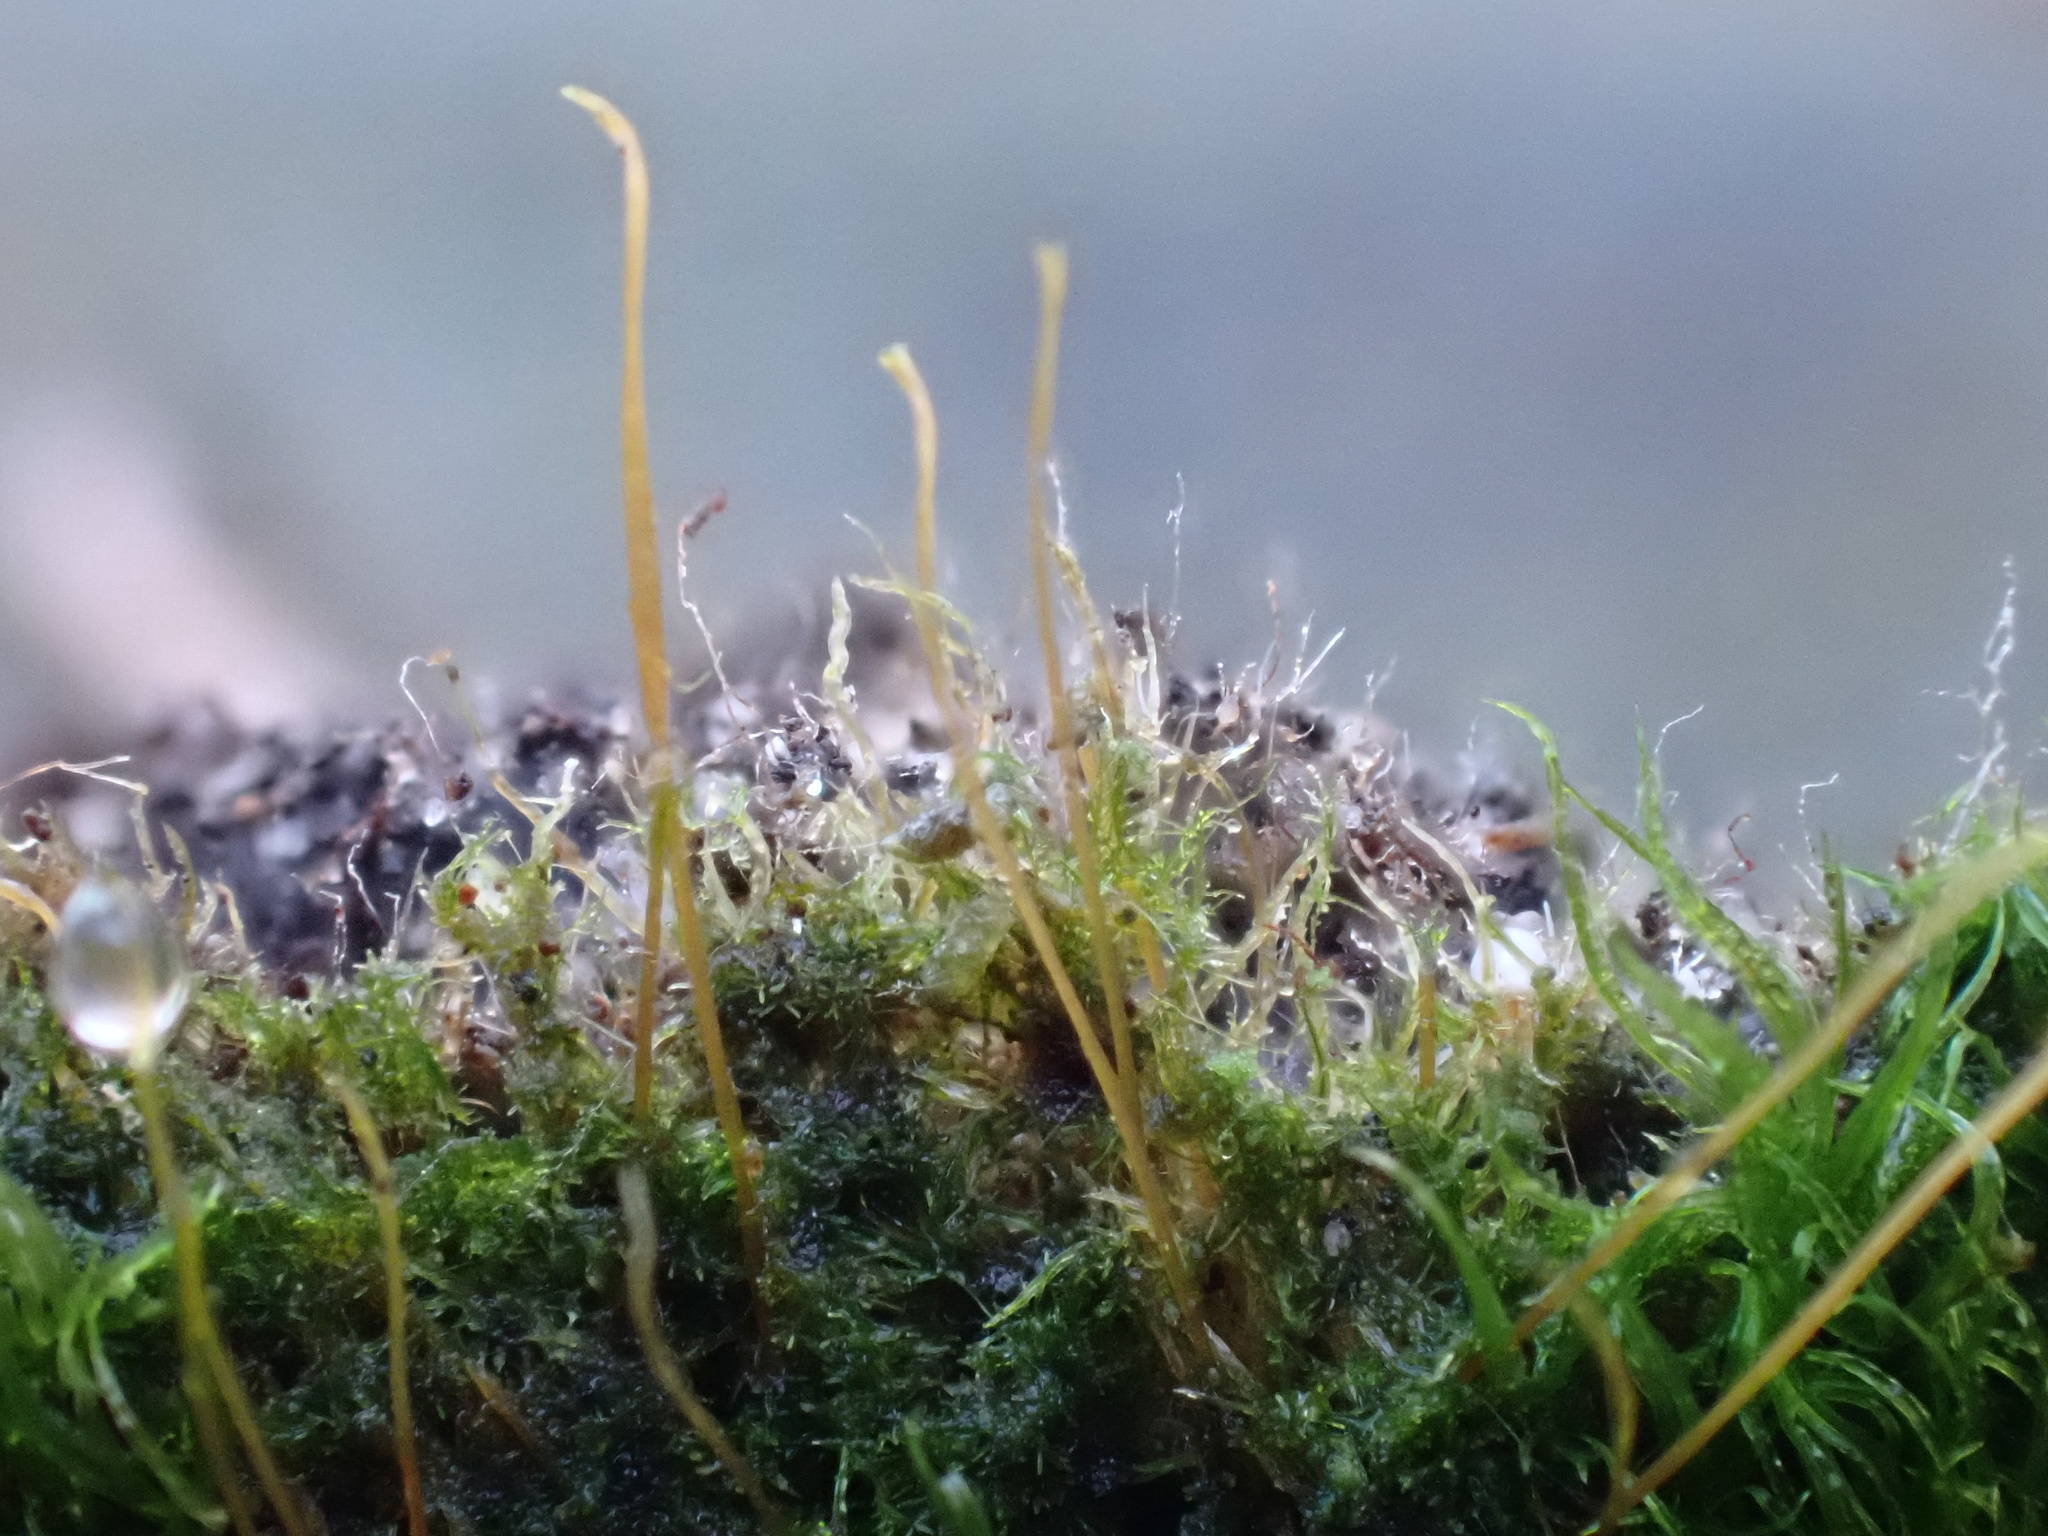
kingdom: Plantae
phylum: Bryophyta
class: Bryopsida
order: Orthodontiales
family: Orthodontiaceae
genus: Orthodontium
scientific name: Orthodontium lineare
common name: Cape thread-moss
